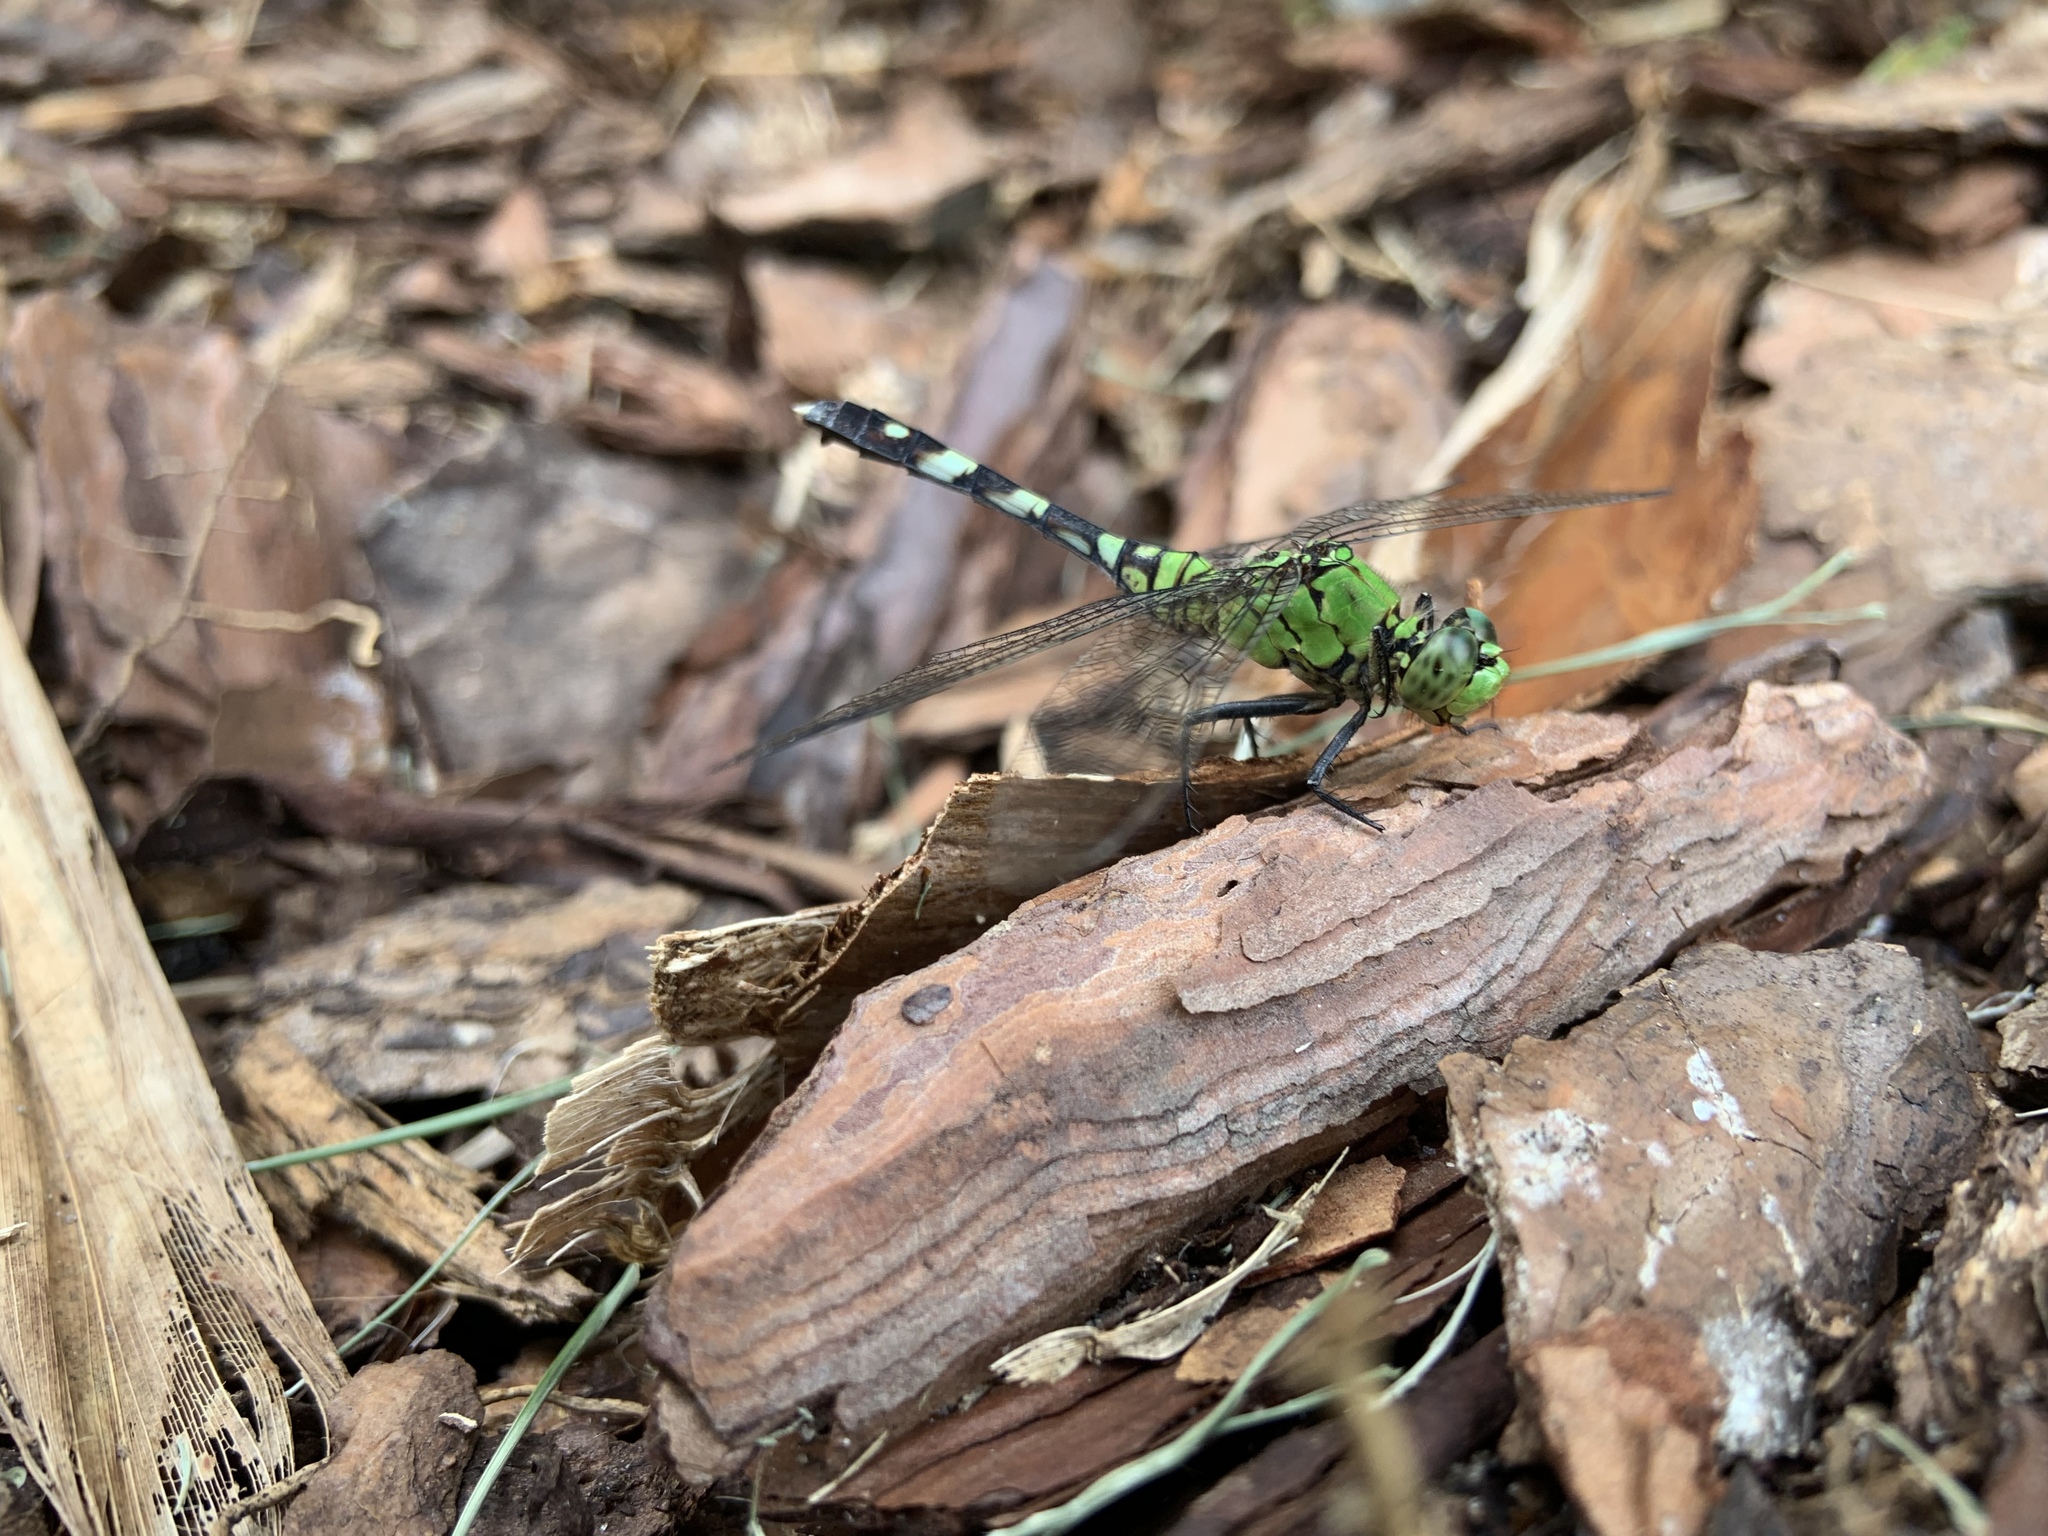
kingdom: Animalia
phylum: Arthropoda
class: Insecta
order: Odonata
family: Libellulidae
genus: Erythemis
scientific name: Erythemis simplicicollis
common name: Eastern pondhawk
